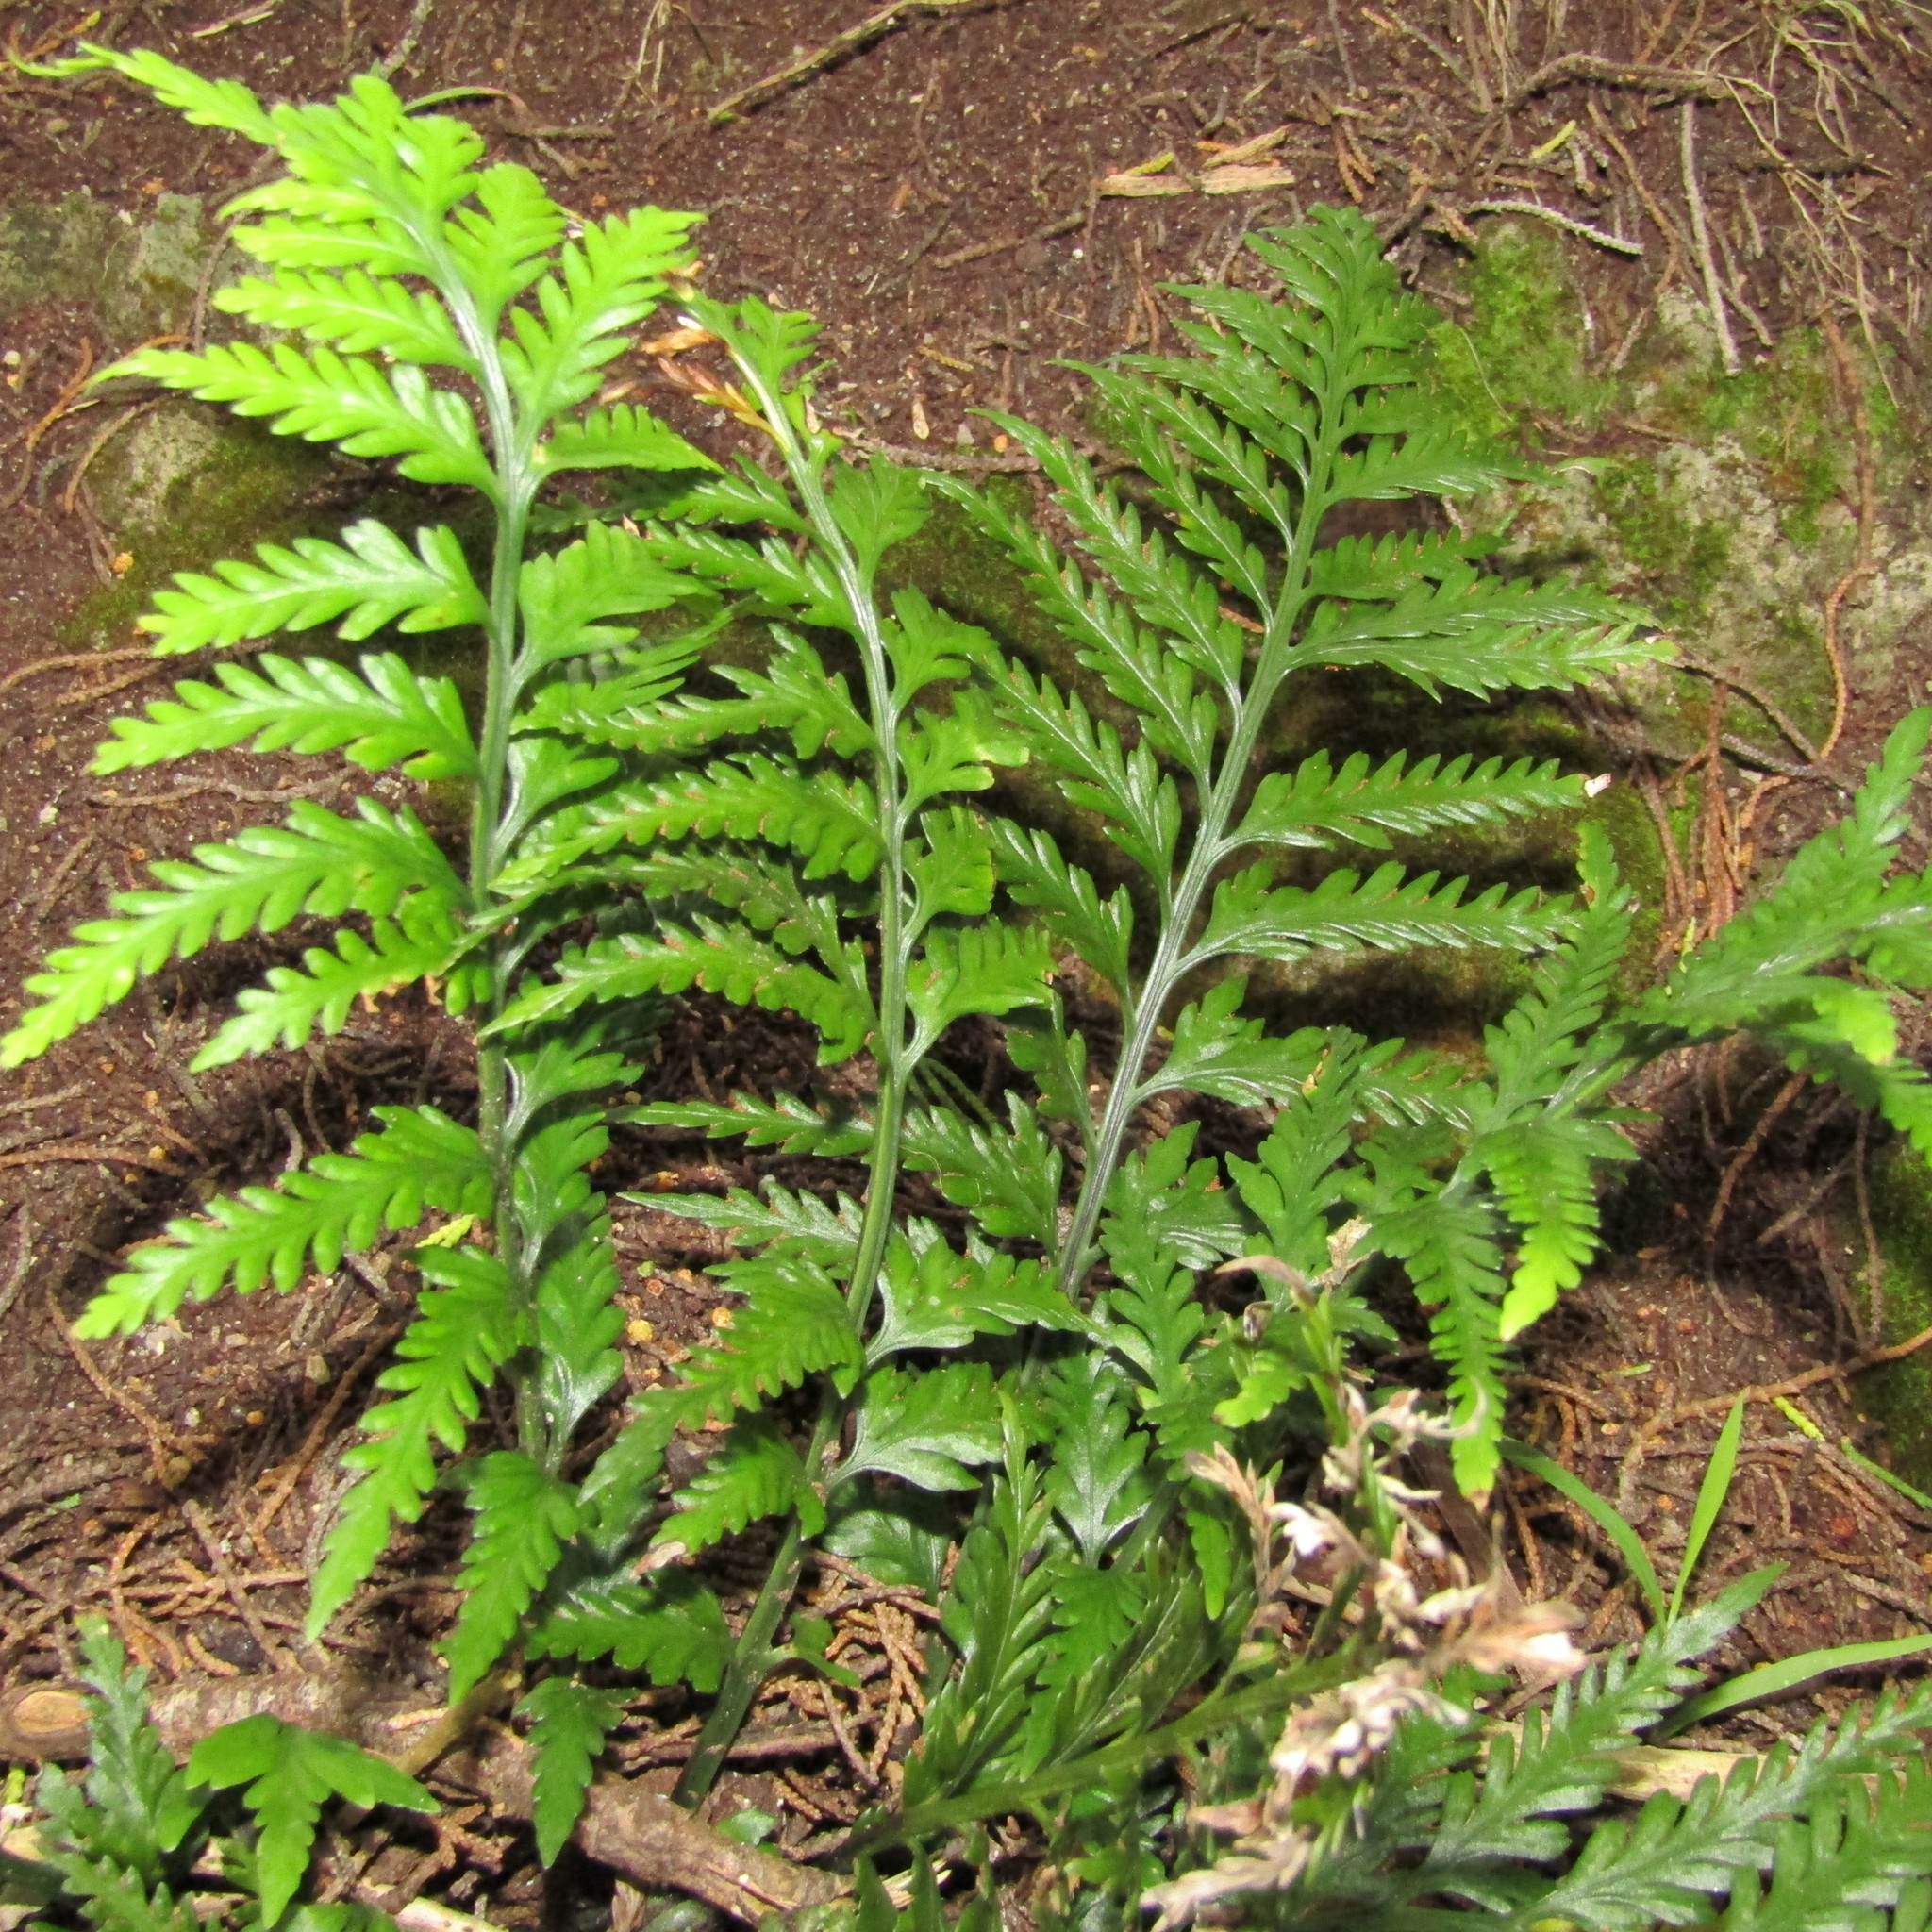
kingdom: Plantae
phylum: Tracheophyta
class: Polypodiopsida
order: Polypodiales
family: Aspleniaceae
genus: Asplenium
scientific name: Asplenium appendiculatum
